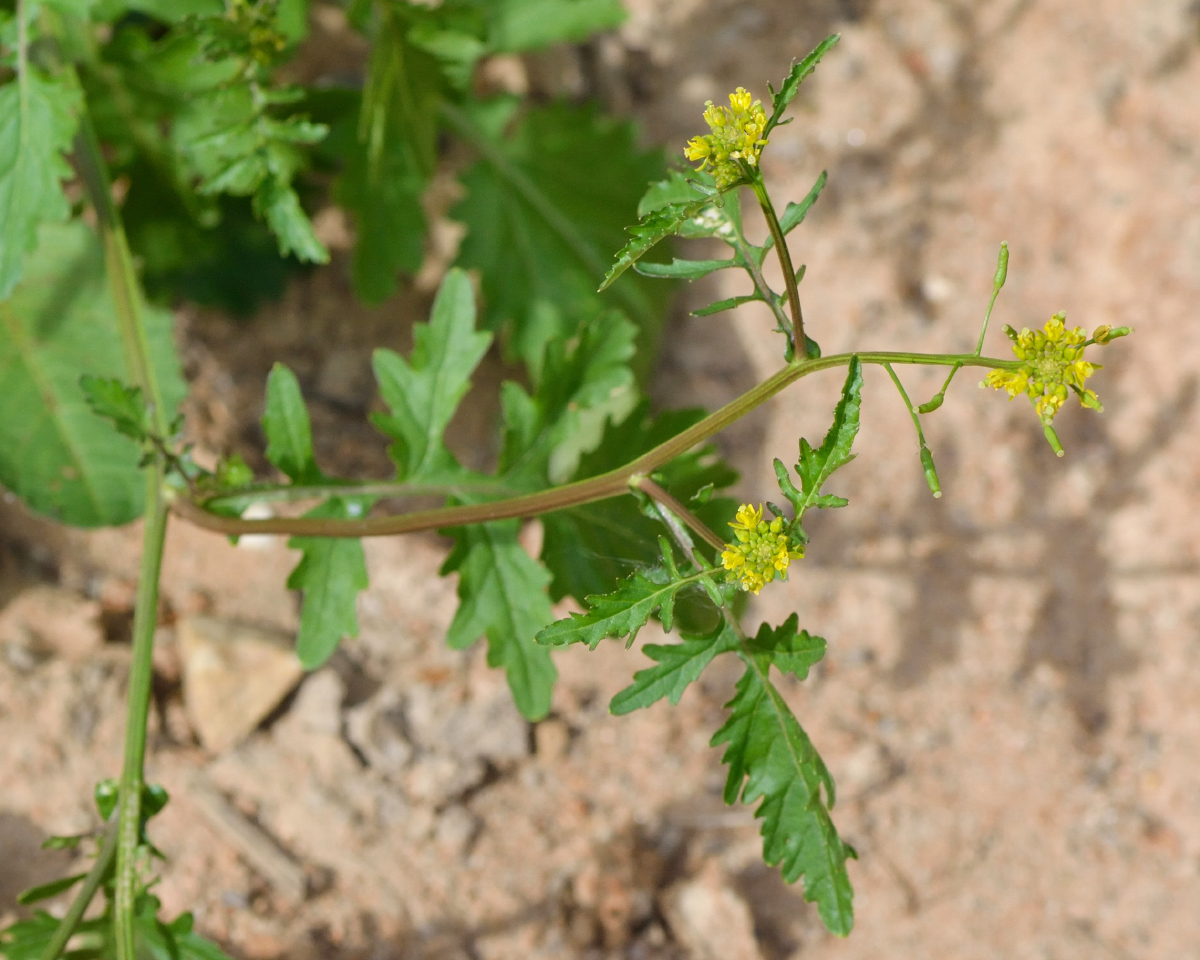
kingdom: Plantae
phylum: Tracheophyta
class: Magnoliopsida
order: Brassicales
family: Brassicaceae
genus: Rorippa
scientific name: Rorippa palustris
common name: Marsh yellow-cress
